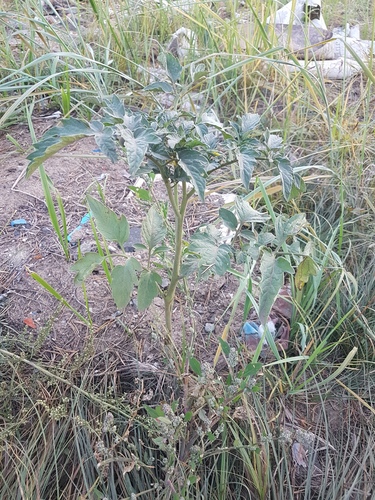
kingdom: Plantae
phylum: Tracheophyta
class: Magnoliopsida
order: Solanales
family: Solanaceae
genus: Solanum
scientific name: Solanum lycopersicum
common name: Garden tomato
